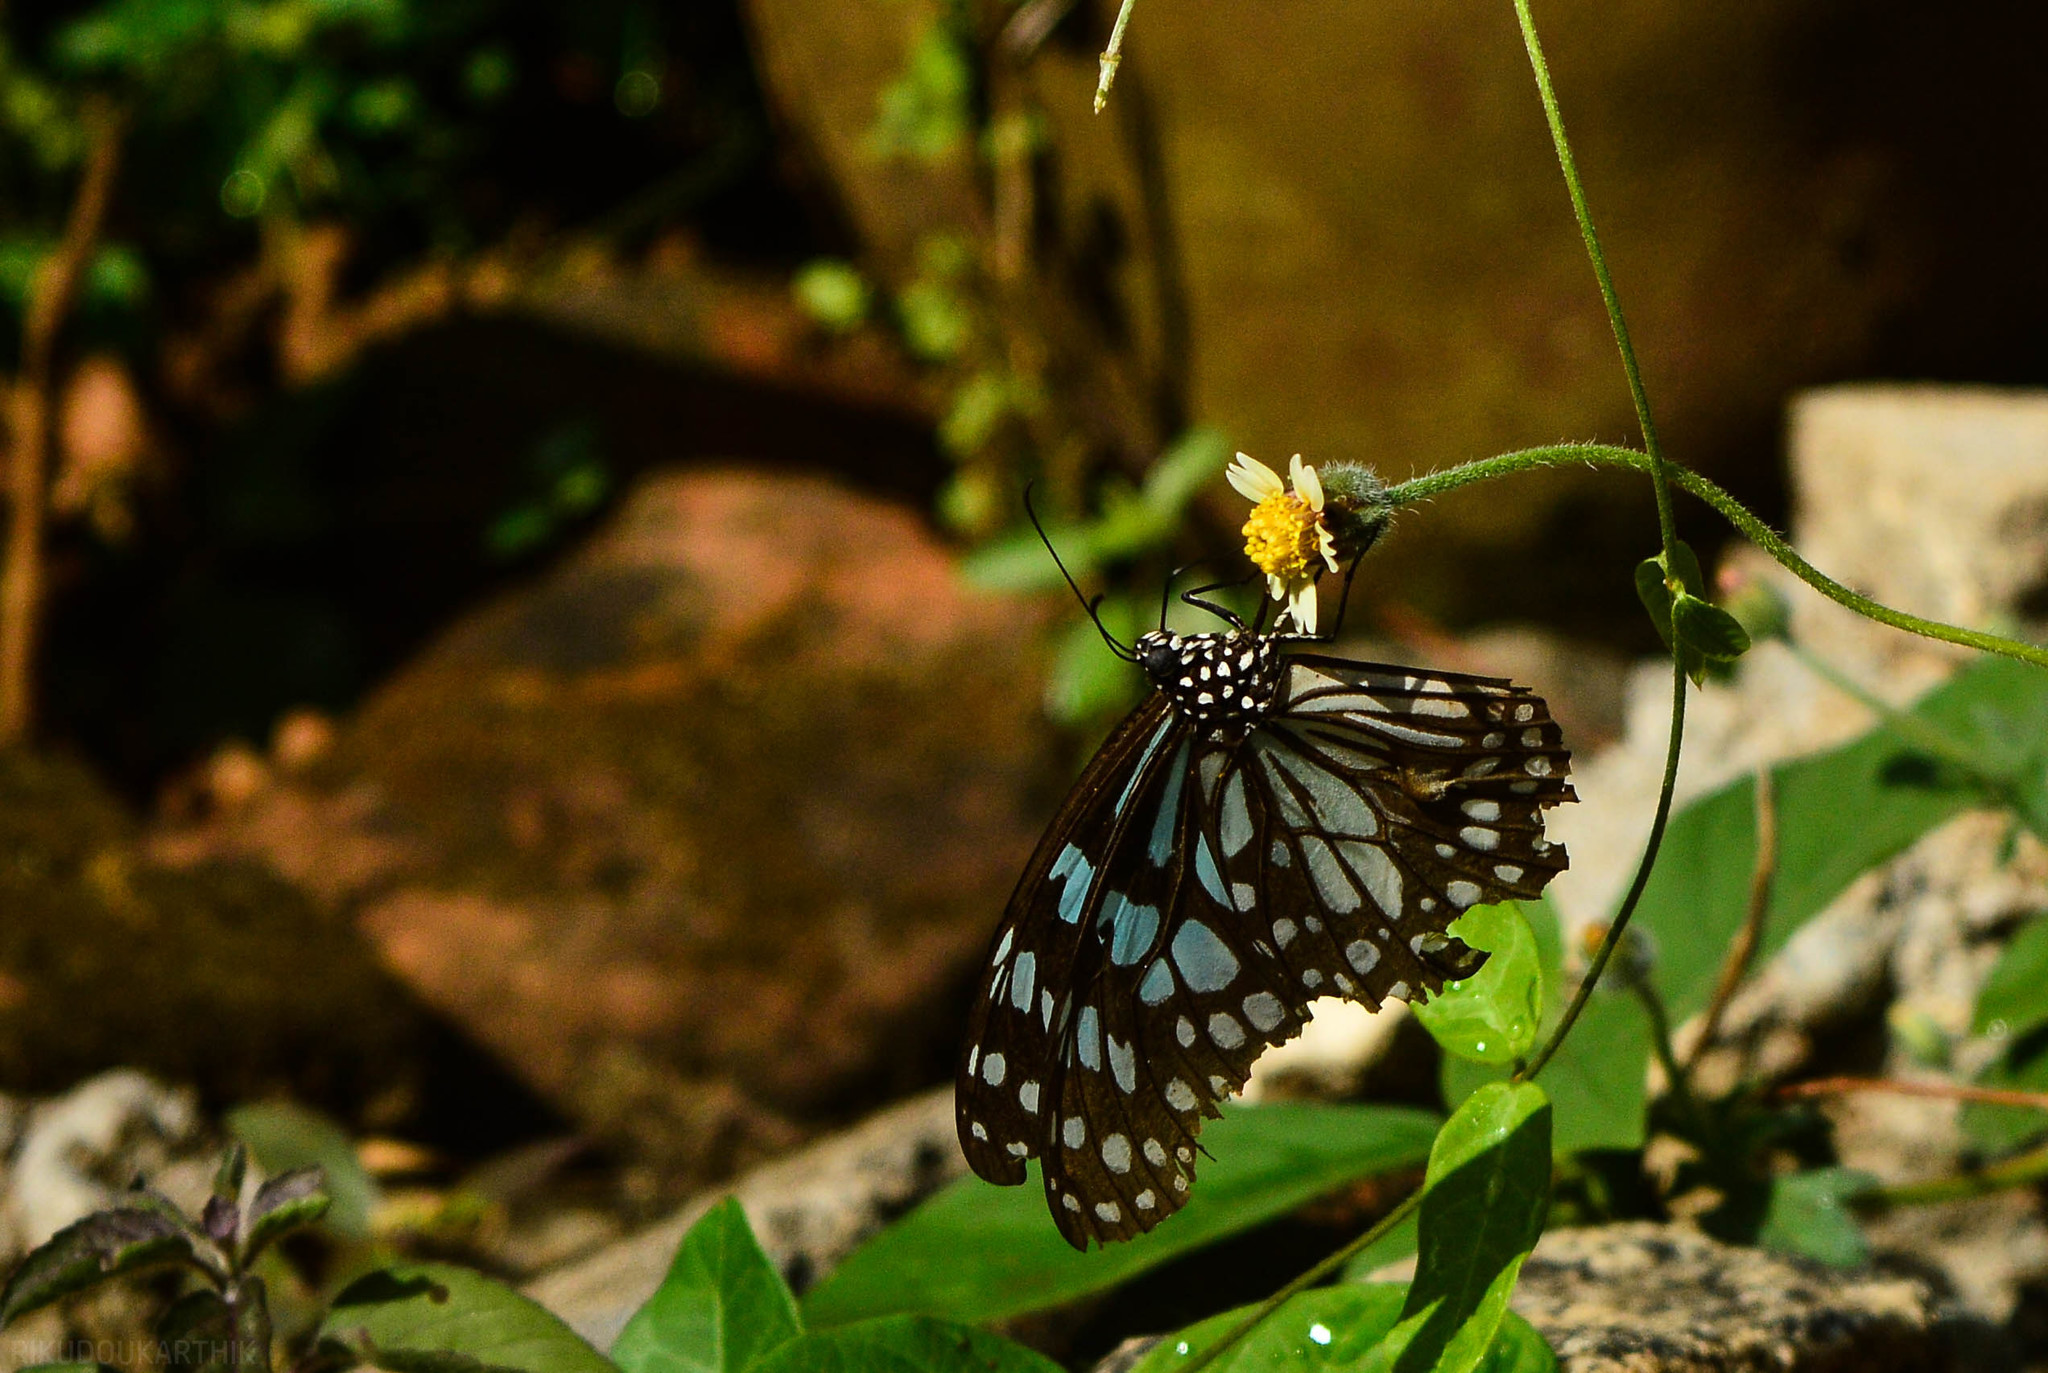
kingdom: Animalia
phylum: Arthropoda
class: Insecta
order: Lepidoptera
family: Nymphalidae
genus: Tirumala
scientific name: Tirumala limniace
